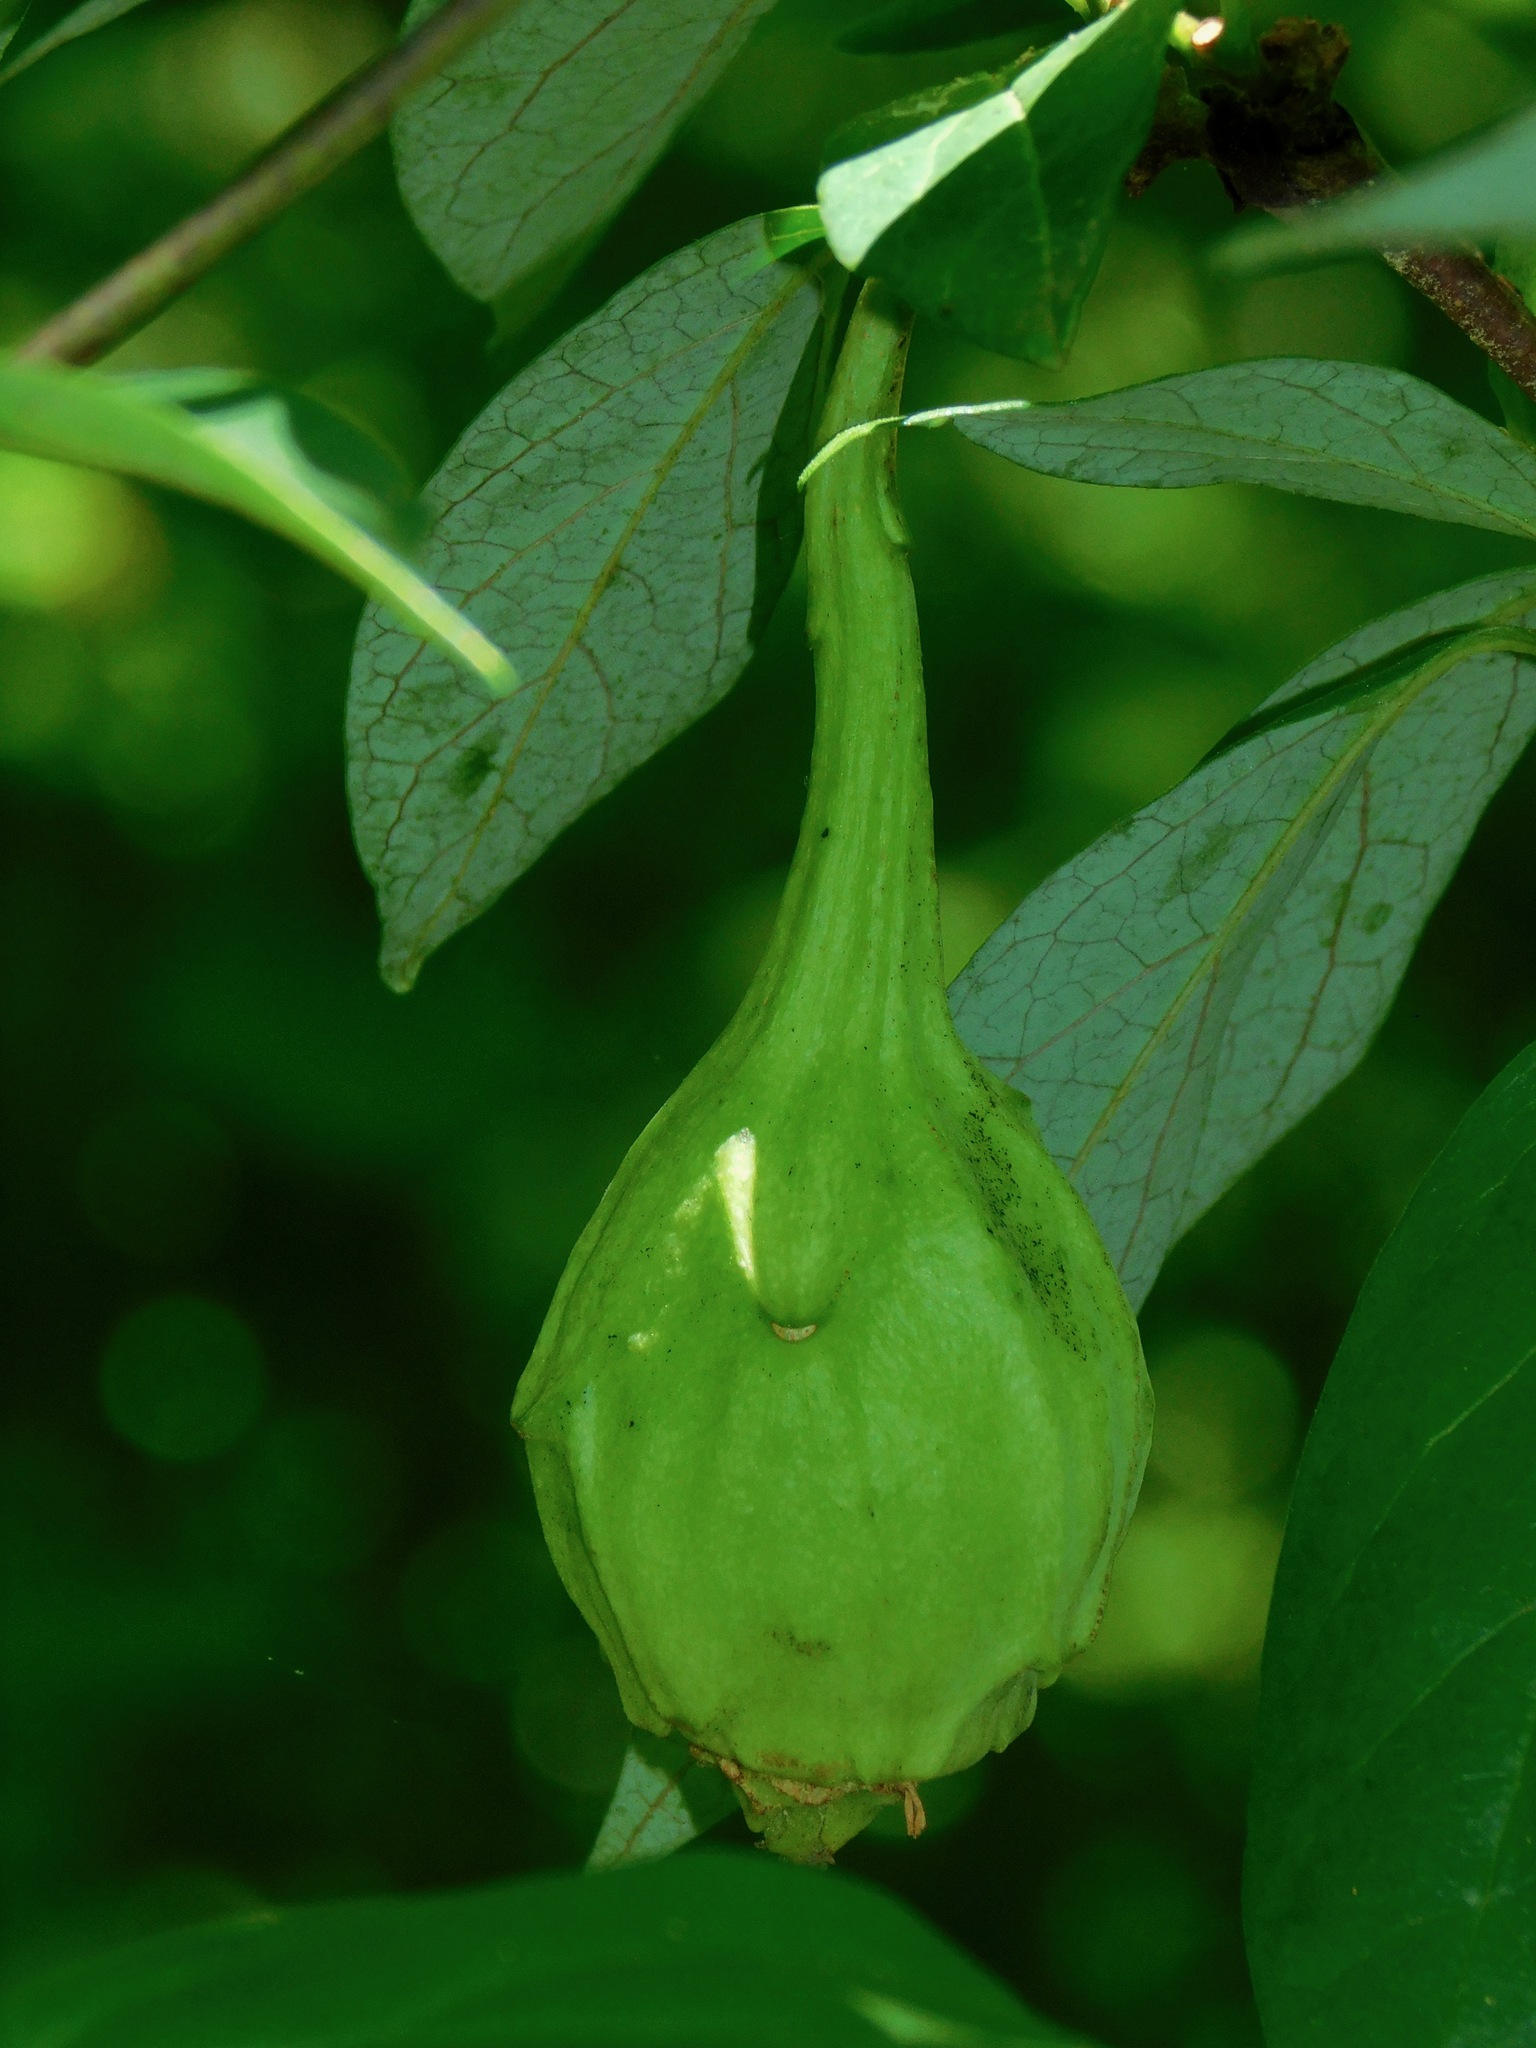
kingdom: Plantae
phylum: Tracheophyta
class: Magnoliopsida
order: Laurales
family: Calycanthaceae
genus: Calycanthus
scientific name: Calycanthus floridus
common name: Carolina-allspice
